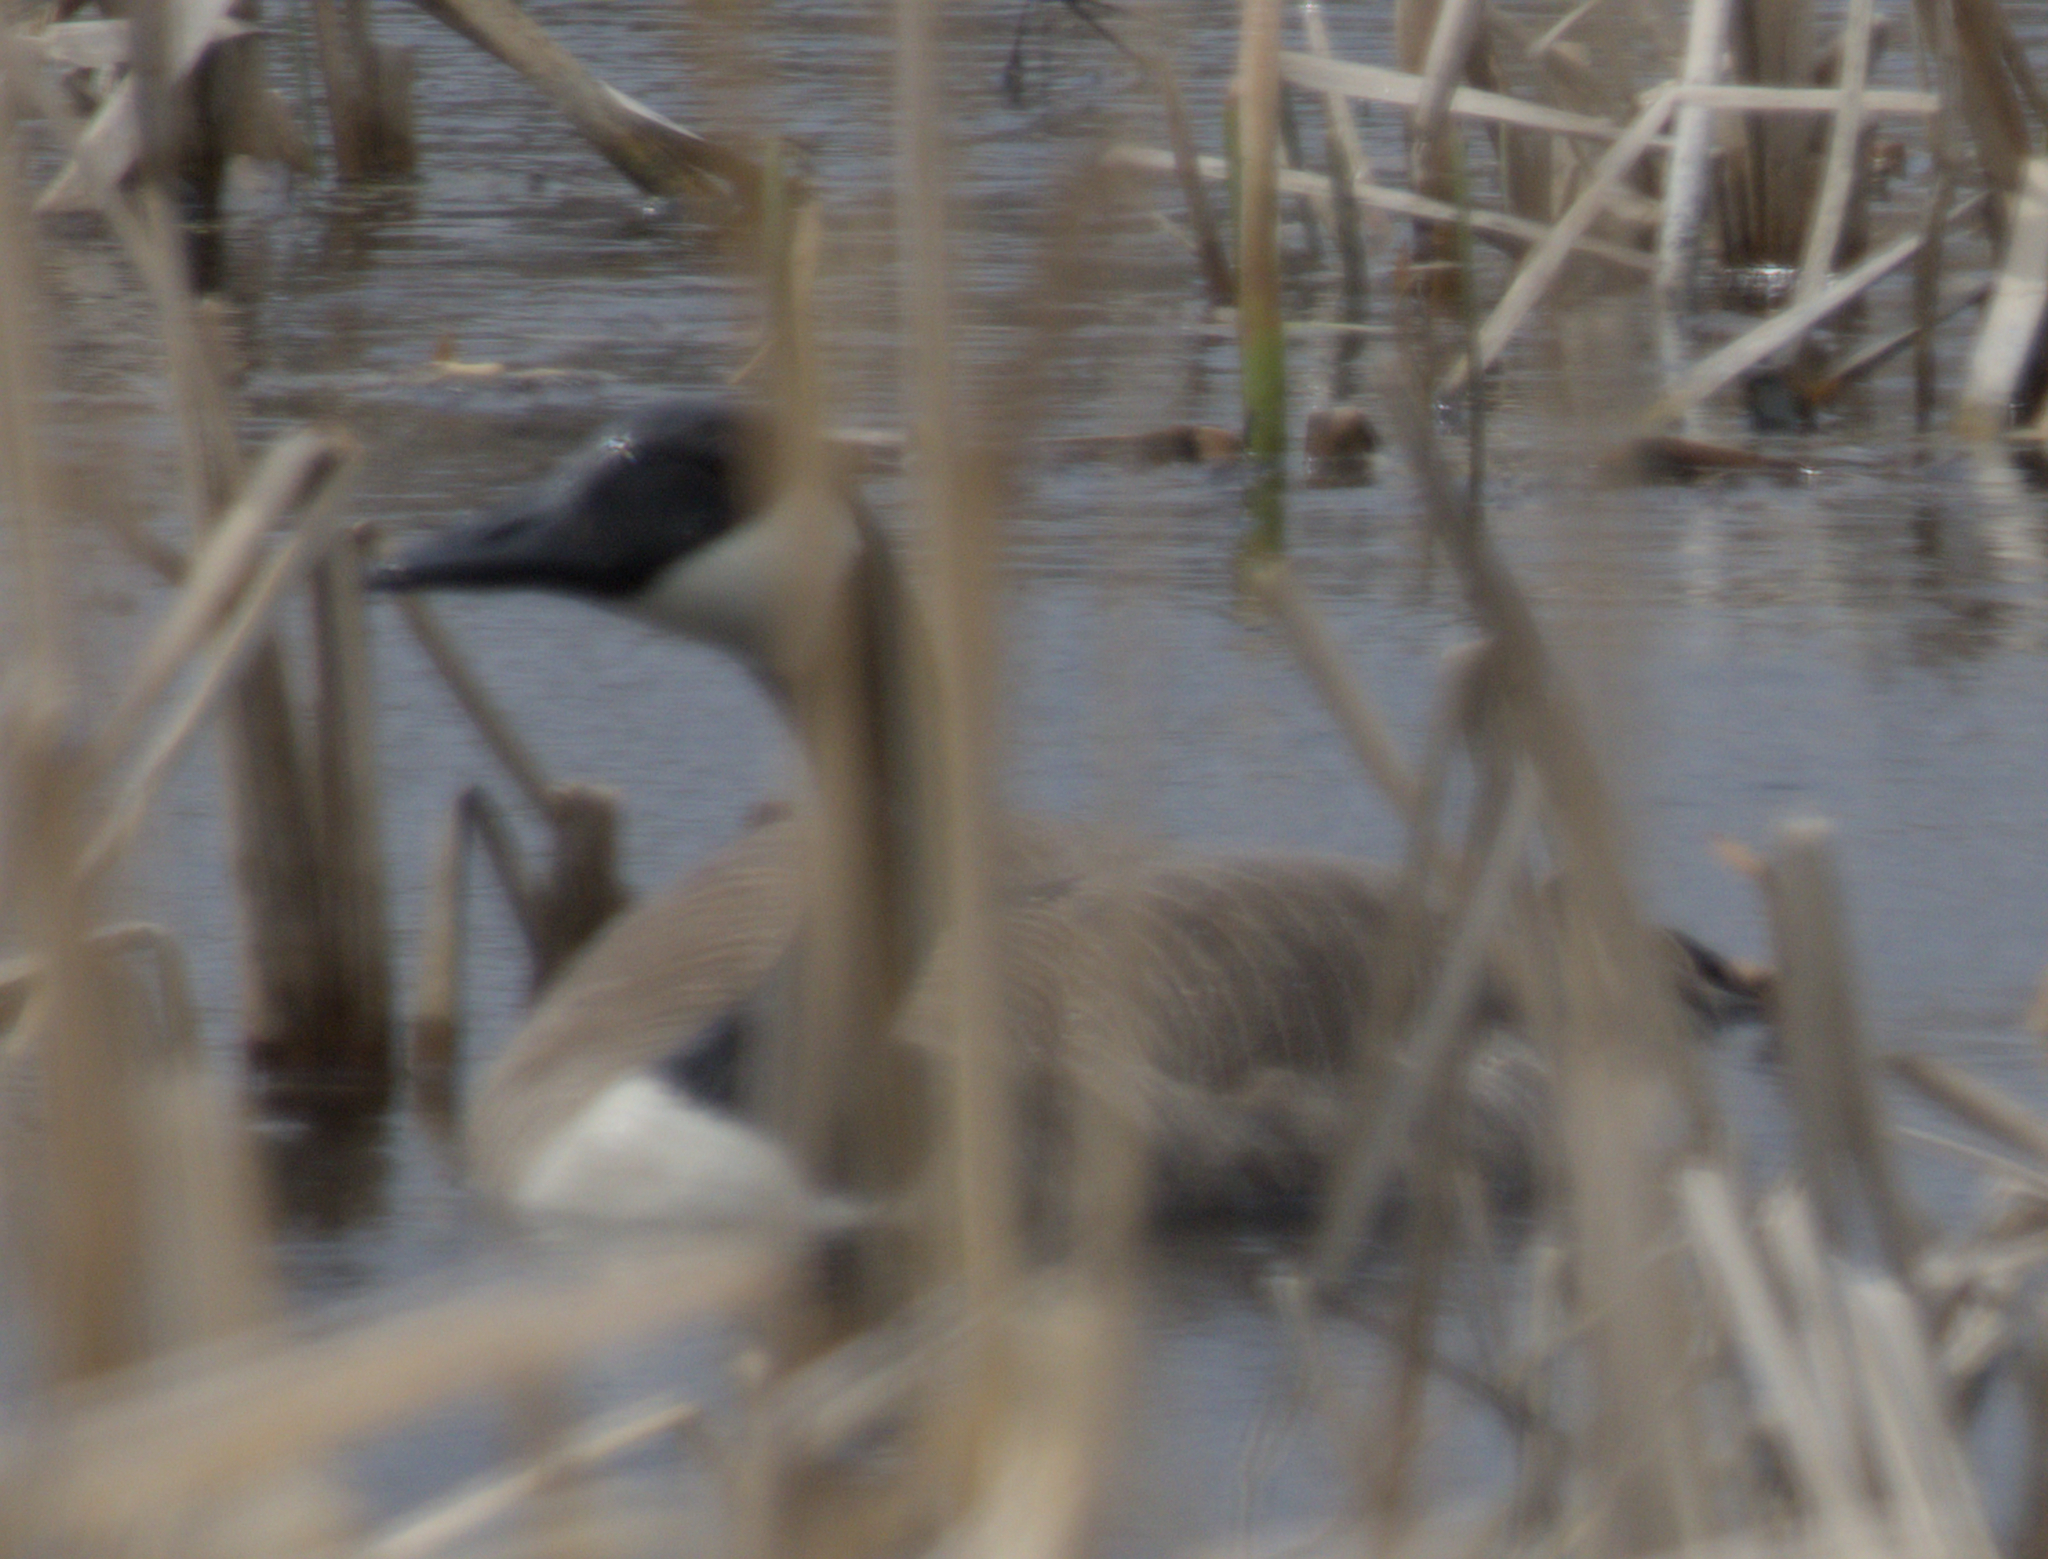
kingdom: Animalia
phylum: Chordata
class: Aves
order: Anseriformes
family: Anatidae
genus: Branta
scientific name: Branta canadensis
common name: Canada goose
